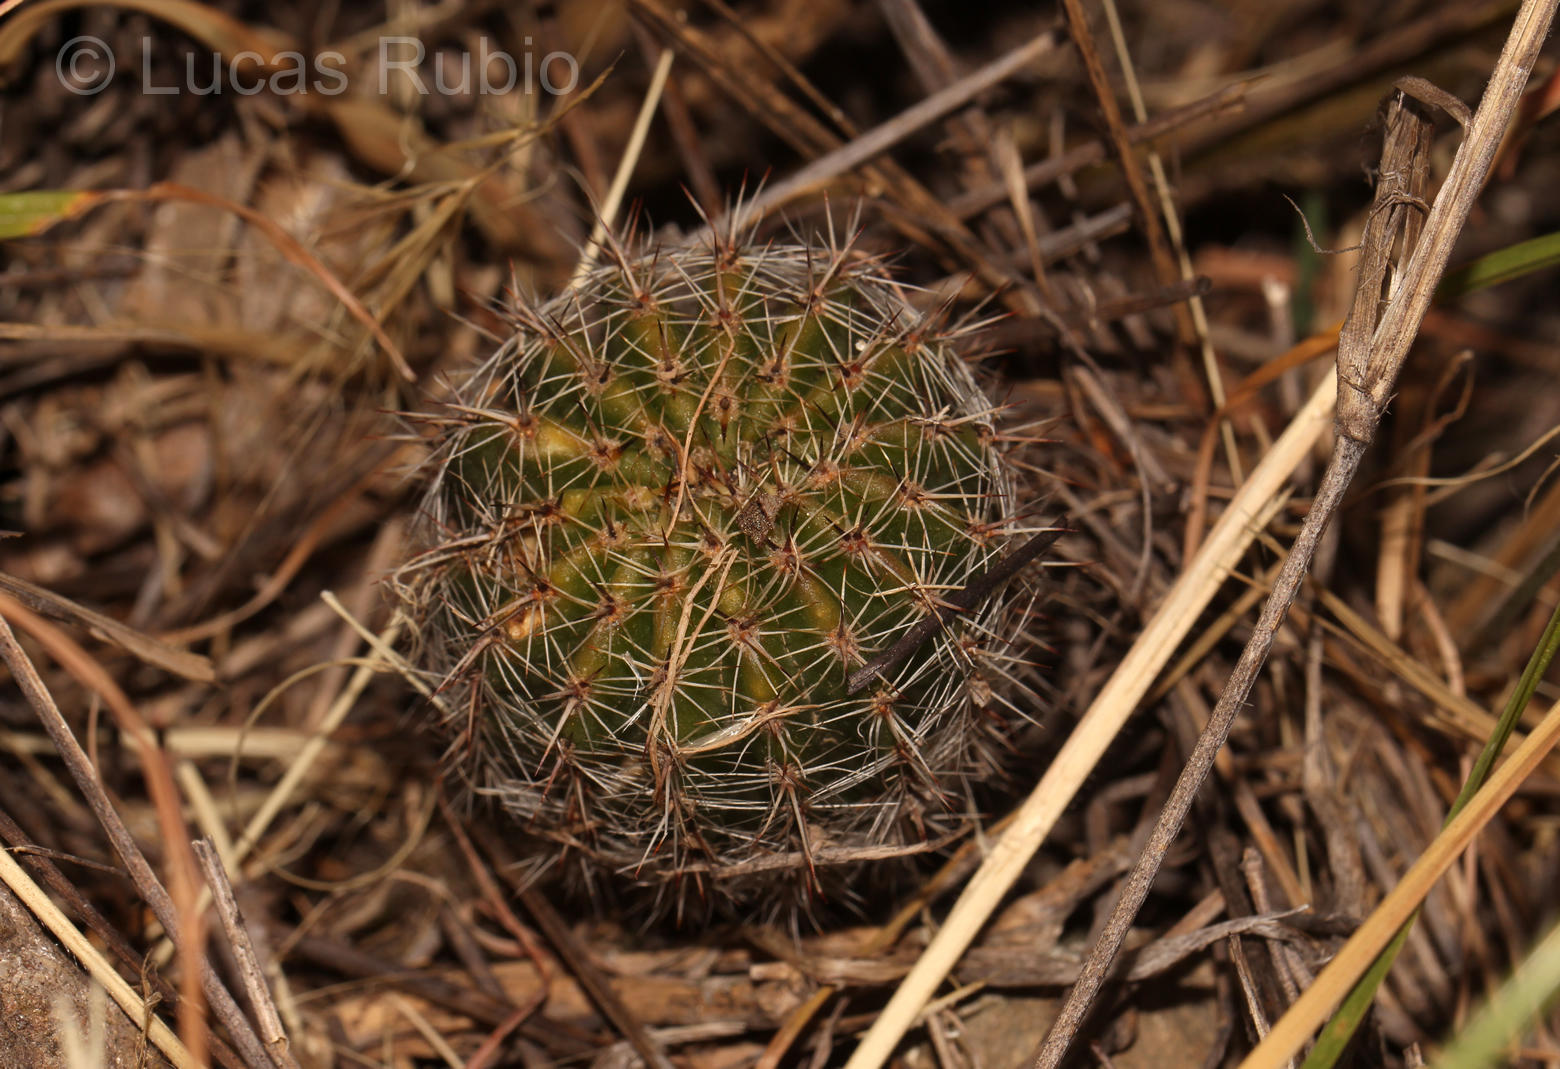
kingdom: Plantae
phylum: Tracheophyta
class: Magnoliopsida
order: Caryophyllales
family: Cactaceae
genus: Echinopsis
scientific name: Echinopsis aurea
